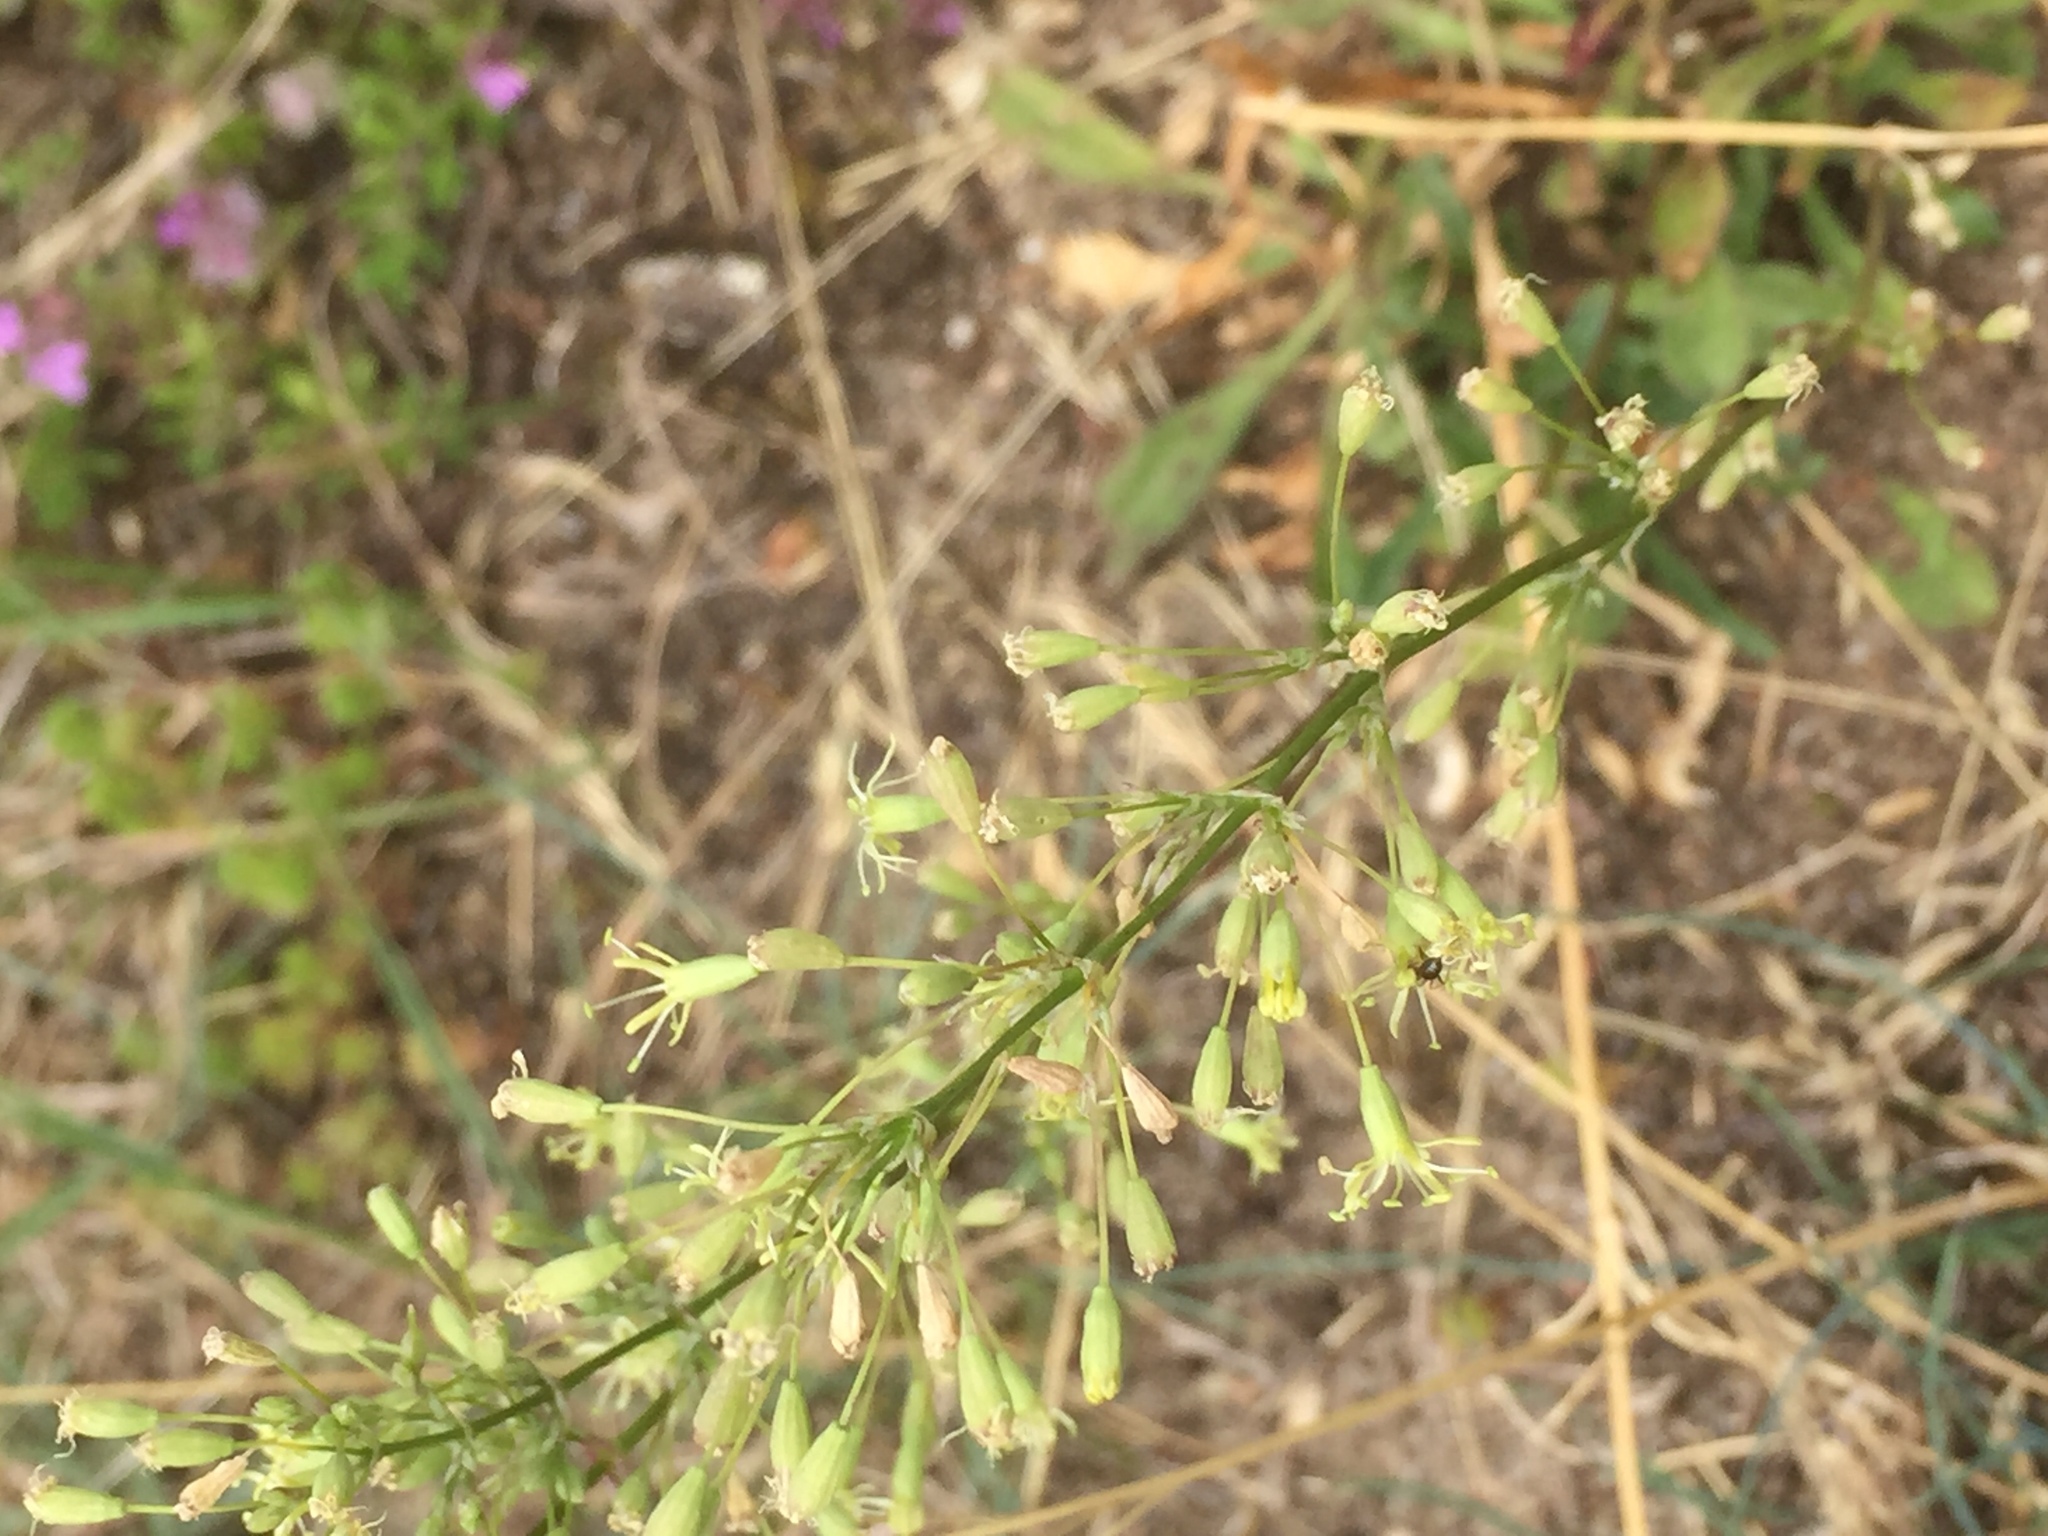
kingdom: Plantae
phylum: Tracheophyta
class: Magnoliopsida
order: Caryophyllales
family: Caryophyllaceae
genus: Silene
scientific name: Silene otites
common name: Spanish catchfly
